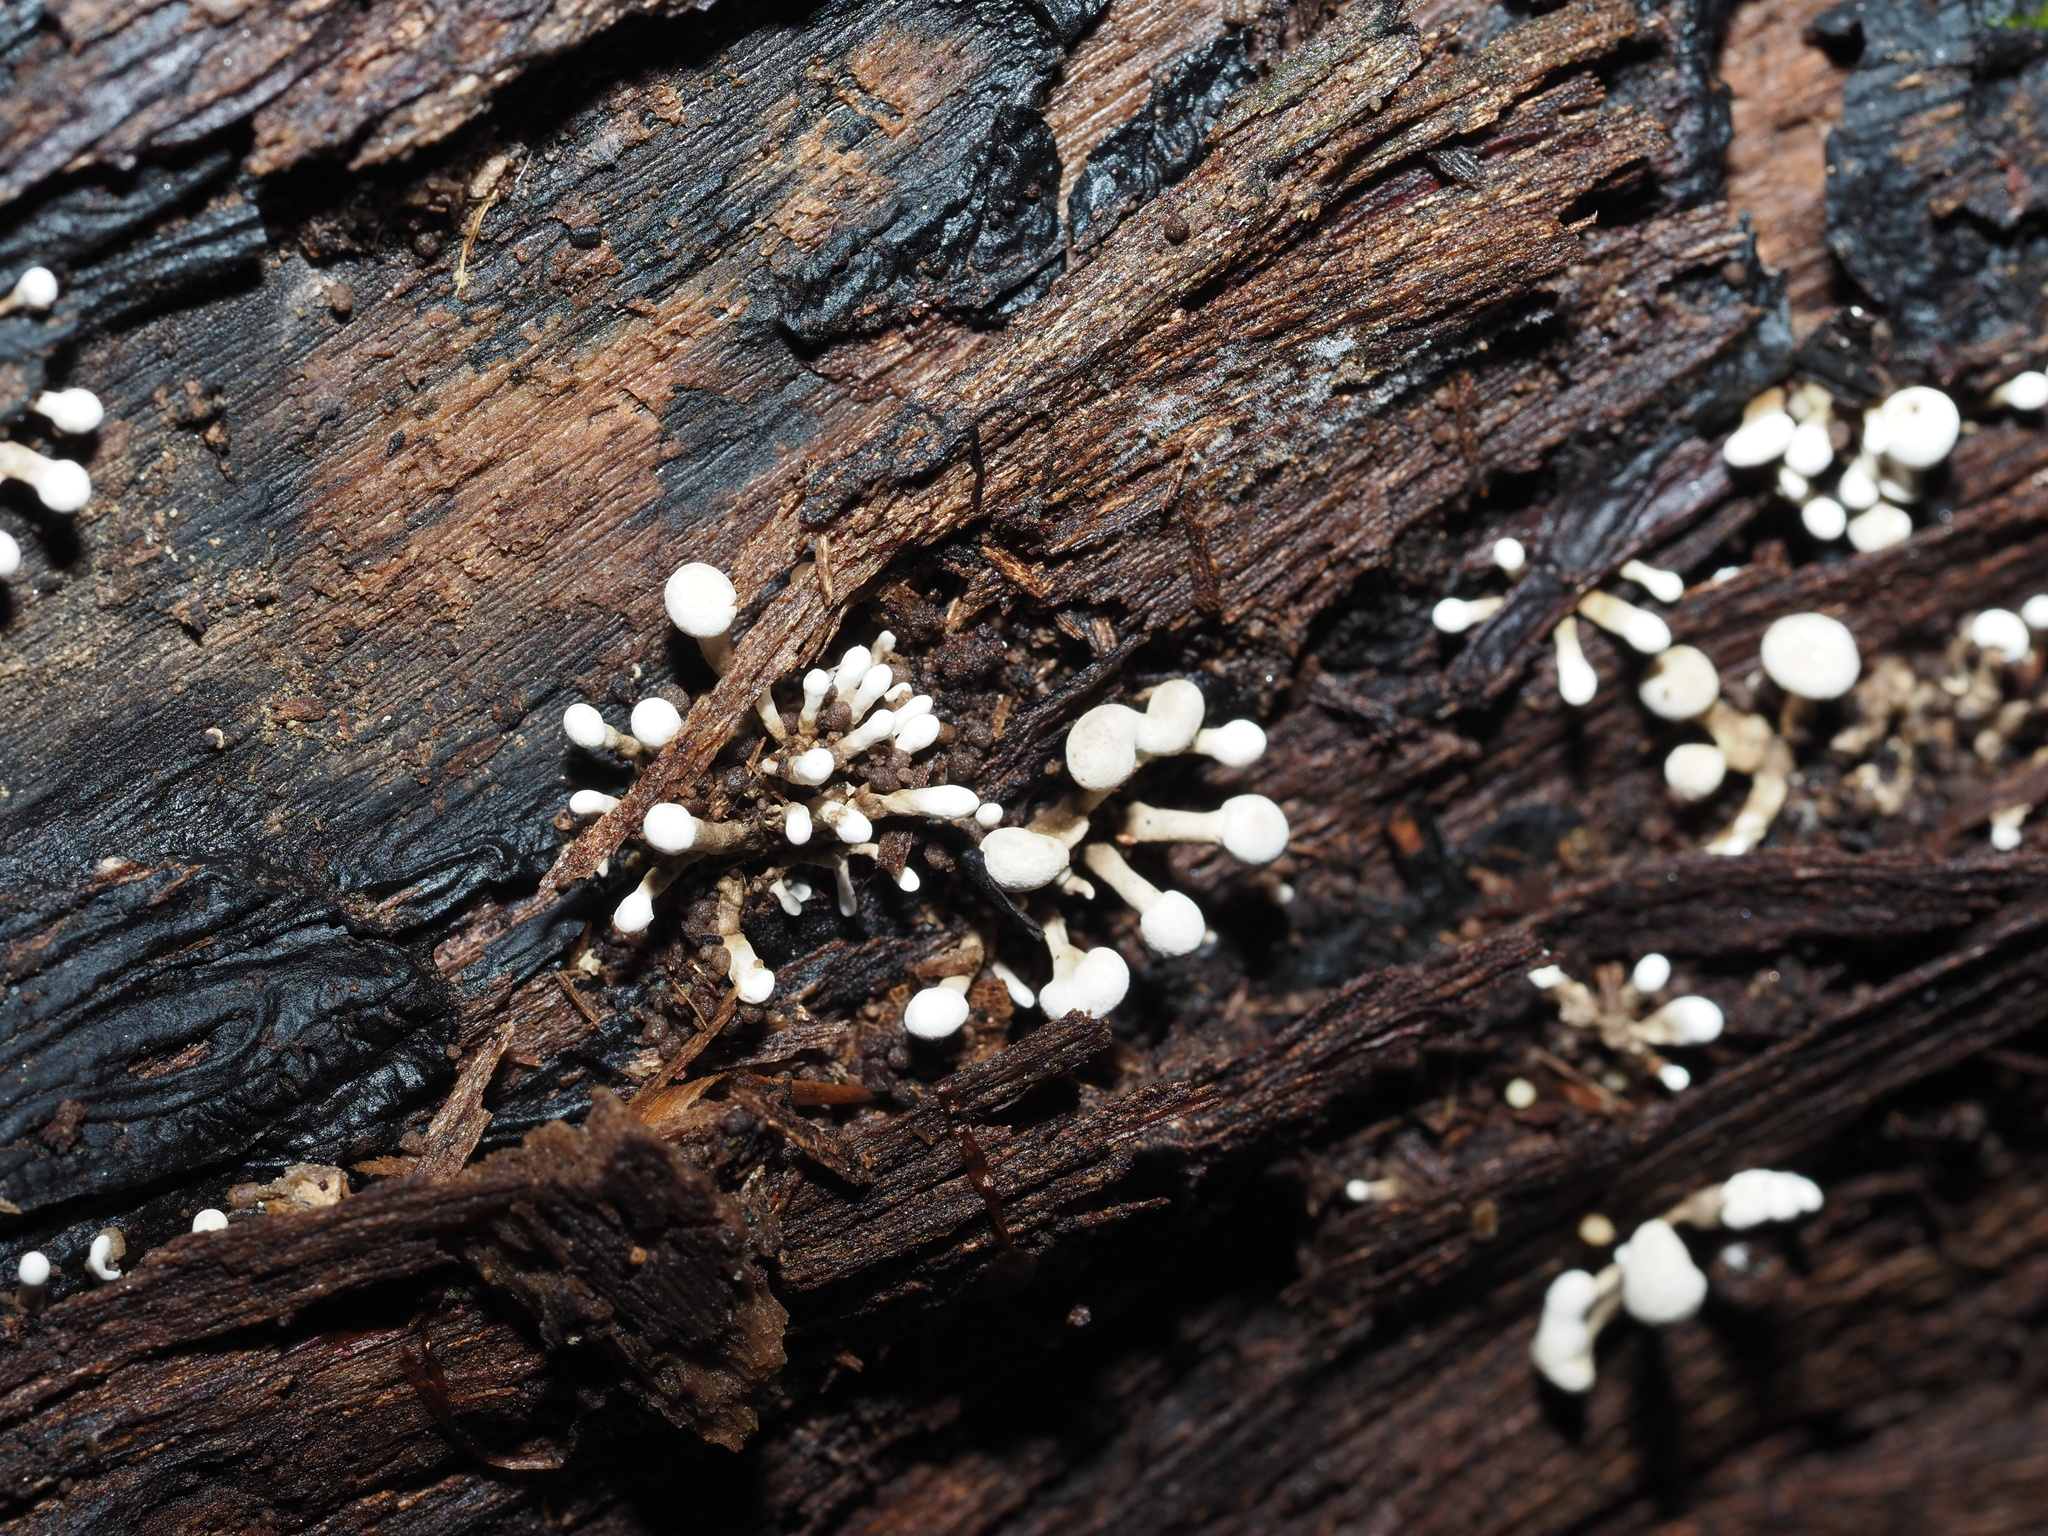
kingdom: Fungi
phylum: Basidiomycota
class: Atractiellomycetes
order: Atractiellales
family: Phleogenaceae
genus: Phleogena
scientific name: Phleogena faginea
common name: Fenugreek stalkball
